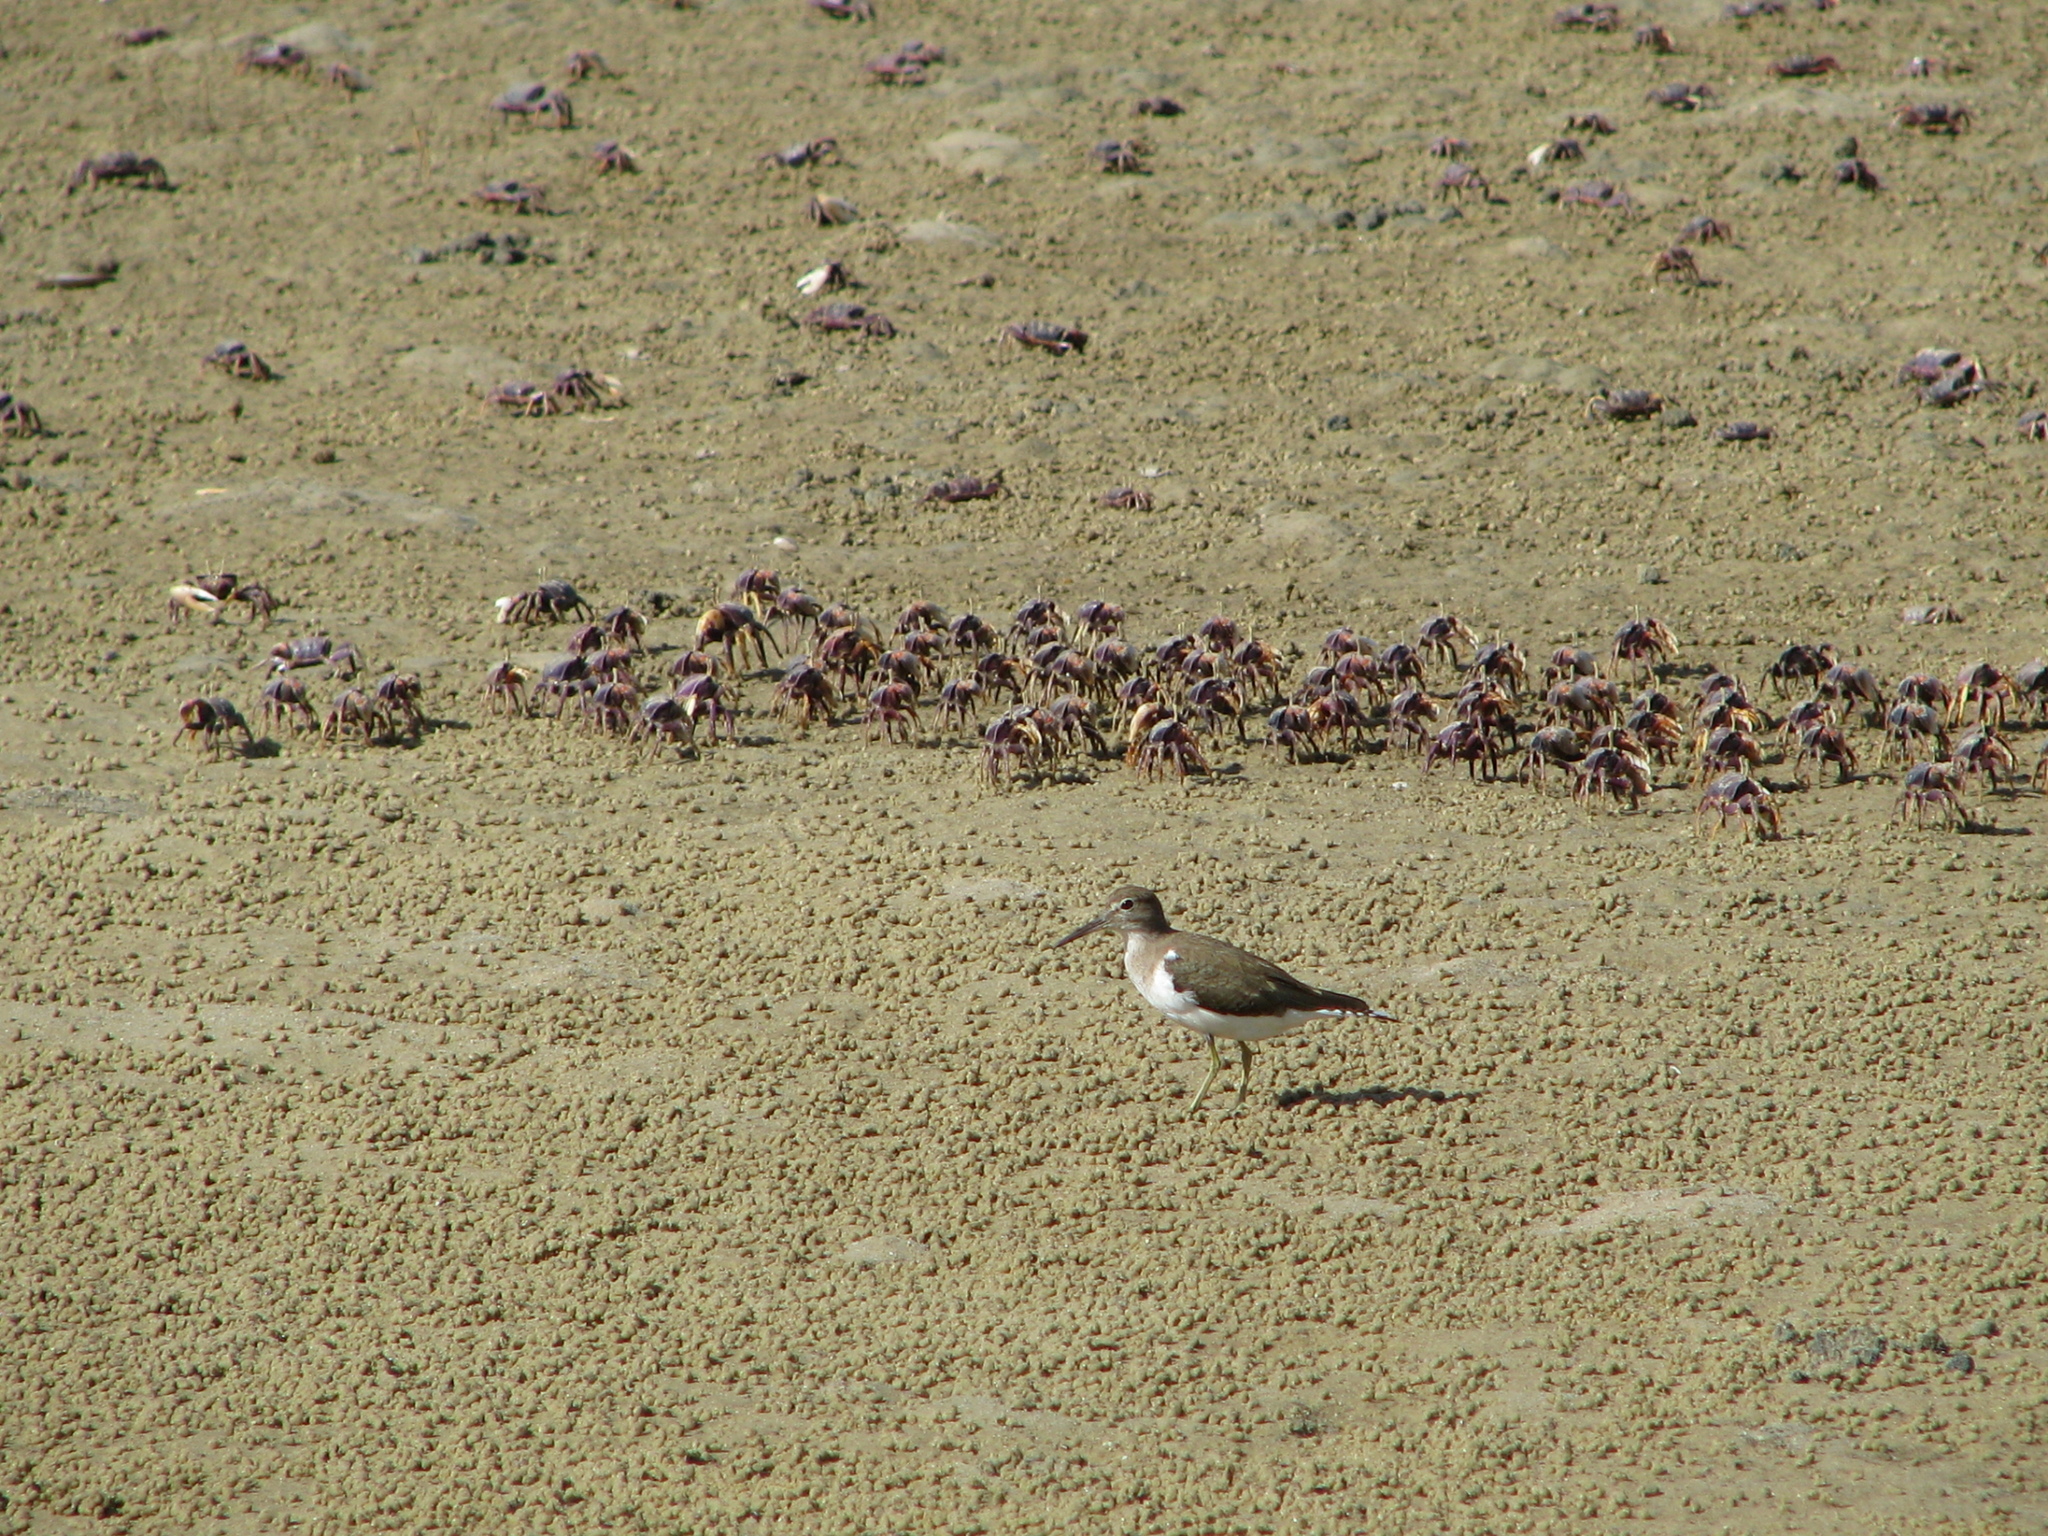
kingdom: Animalia
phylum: Chordata
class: Aves
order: Charadriiformes
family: Scolopacidae
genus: Actitis
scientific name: Actitis hypoleucos
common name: Common sandpiper
